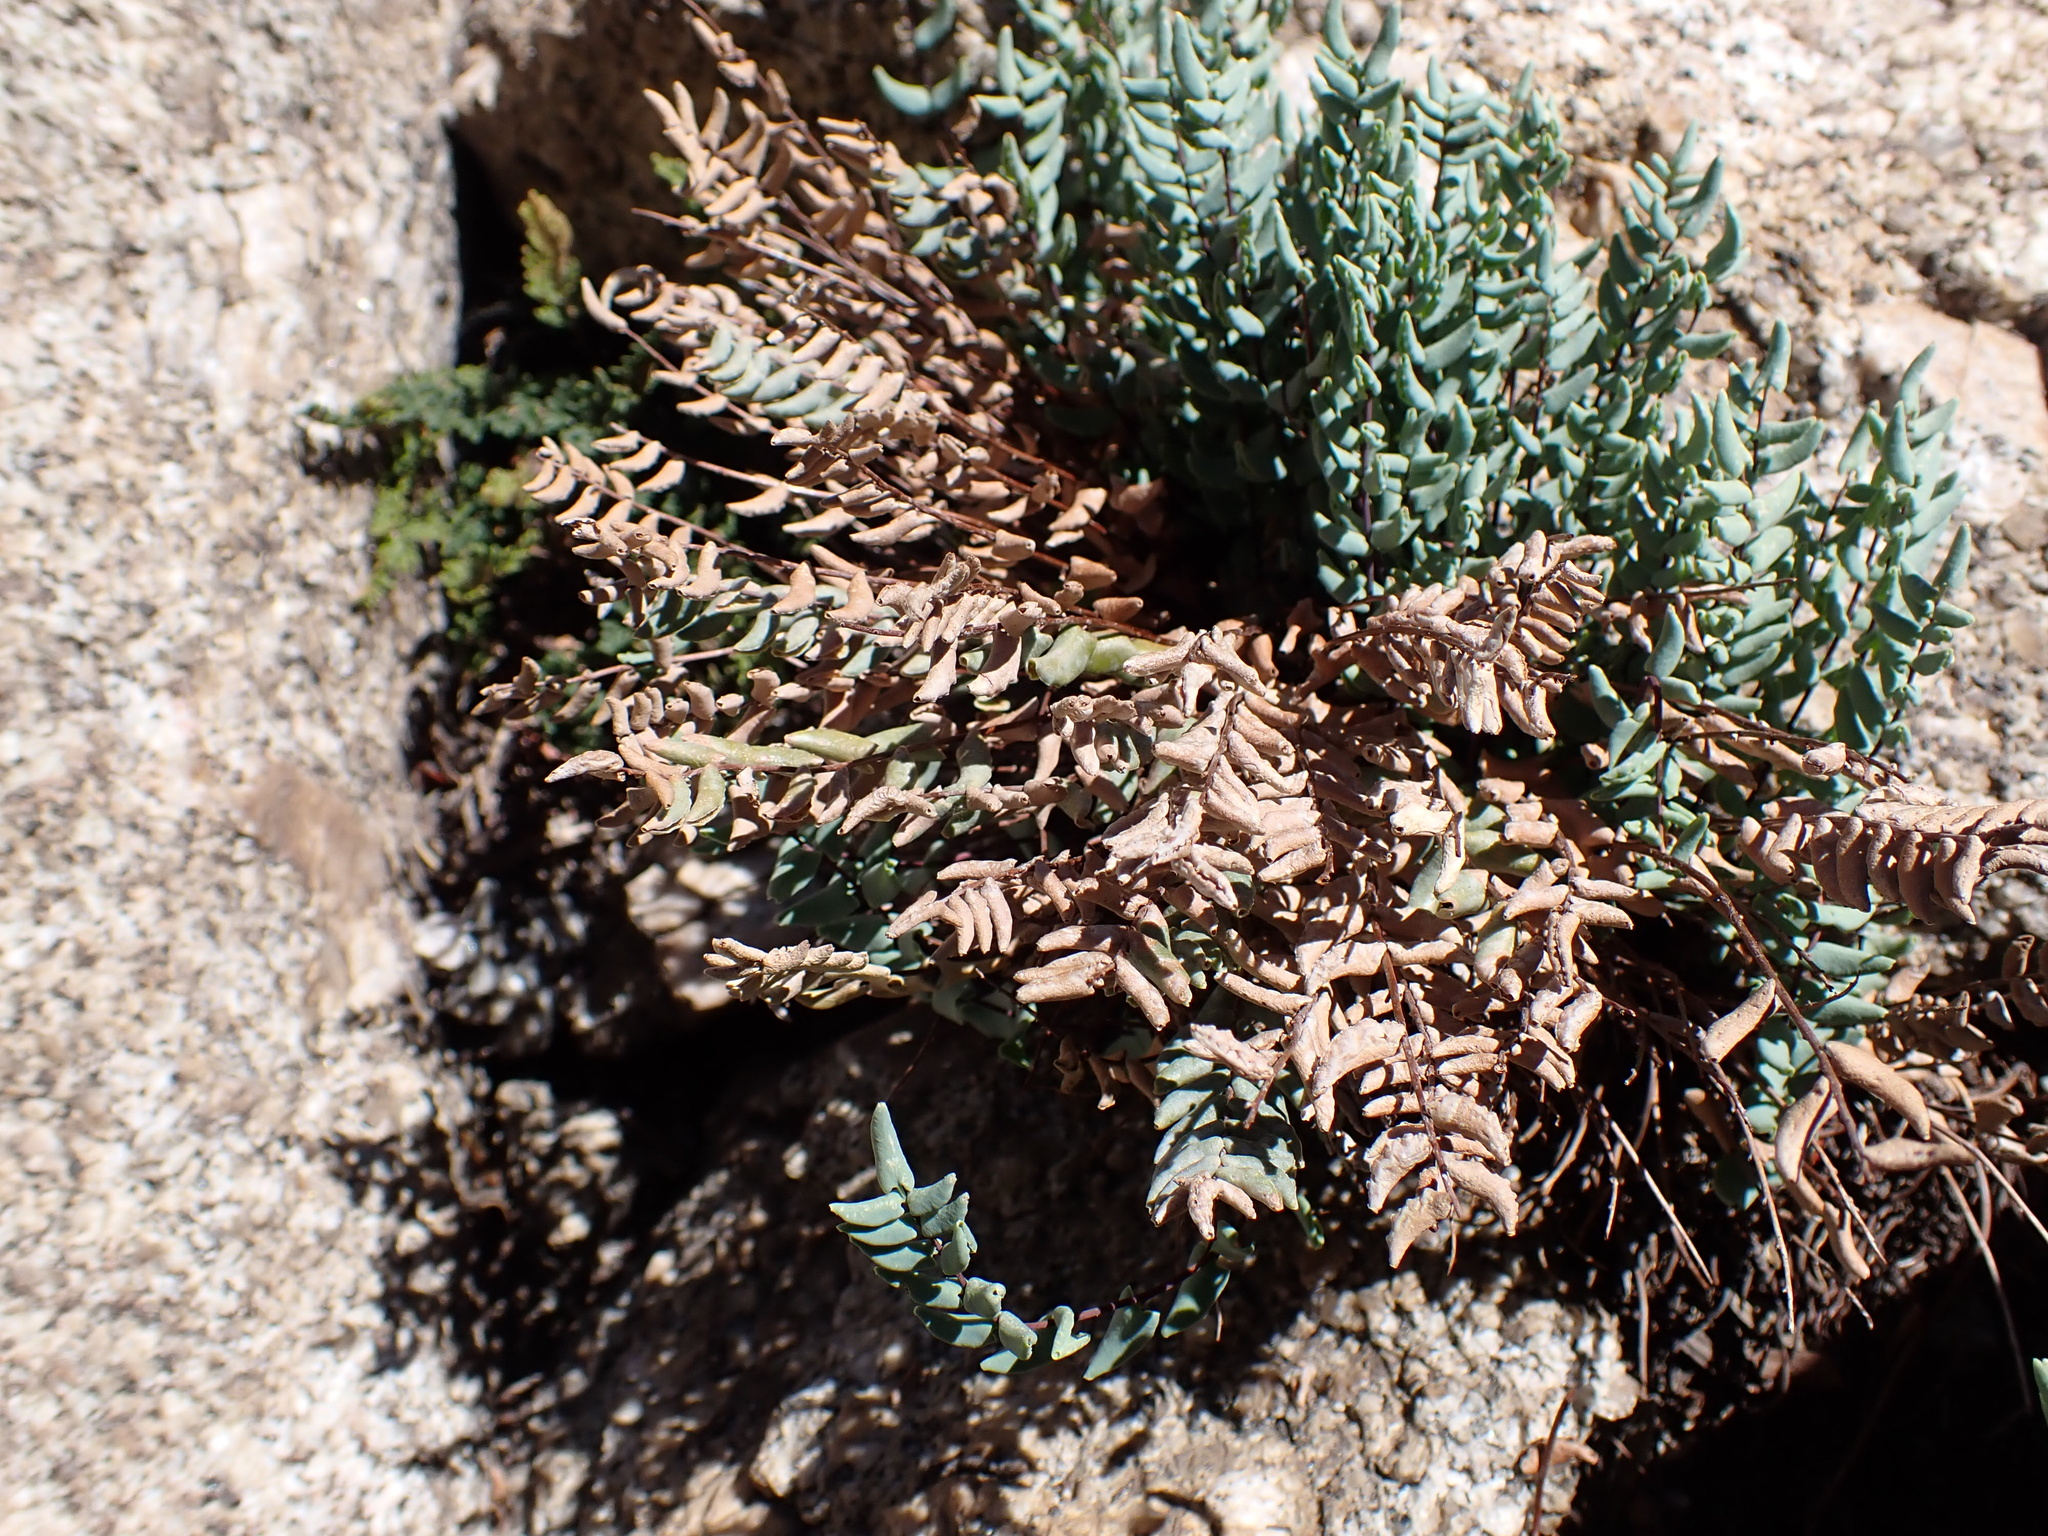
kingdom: Plantae
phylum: Tracheophyta
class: Polypodiopsida
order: Polypodiales
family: Pteridaceae
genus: Pellaea
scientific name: Pellaea bridgesii
